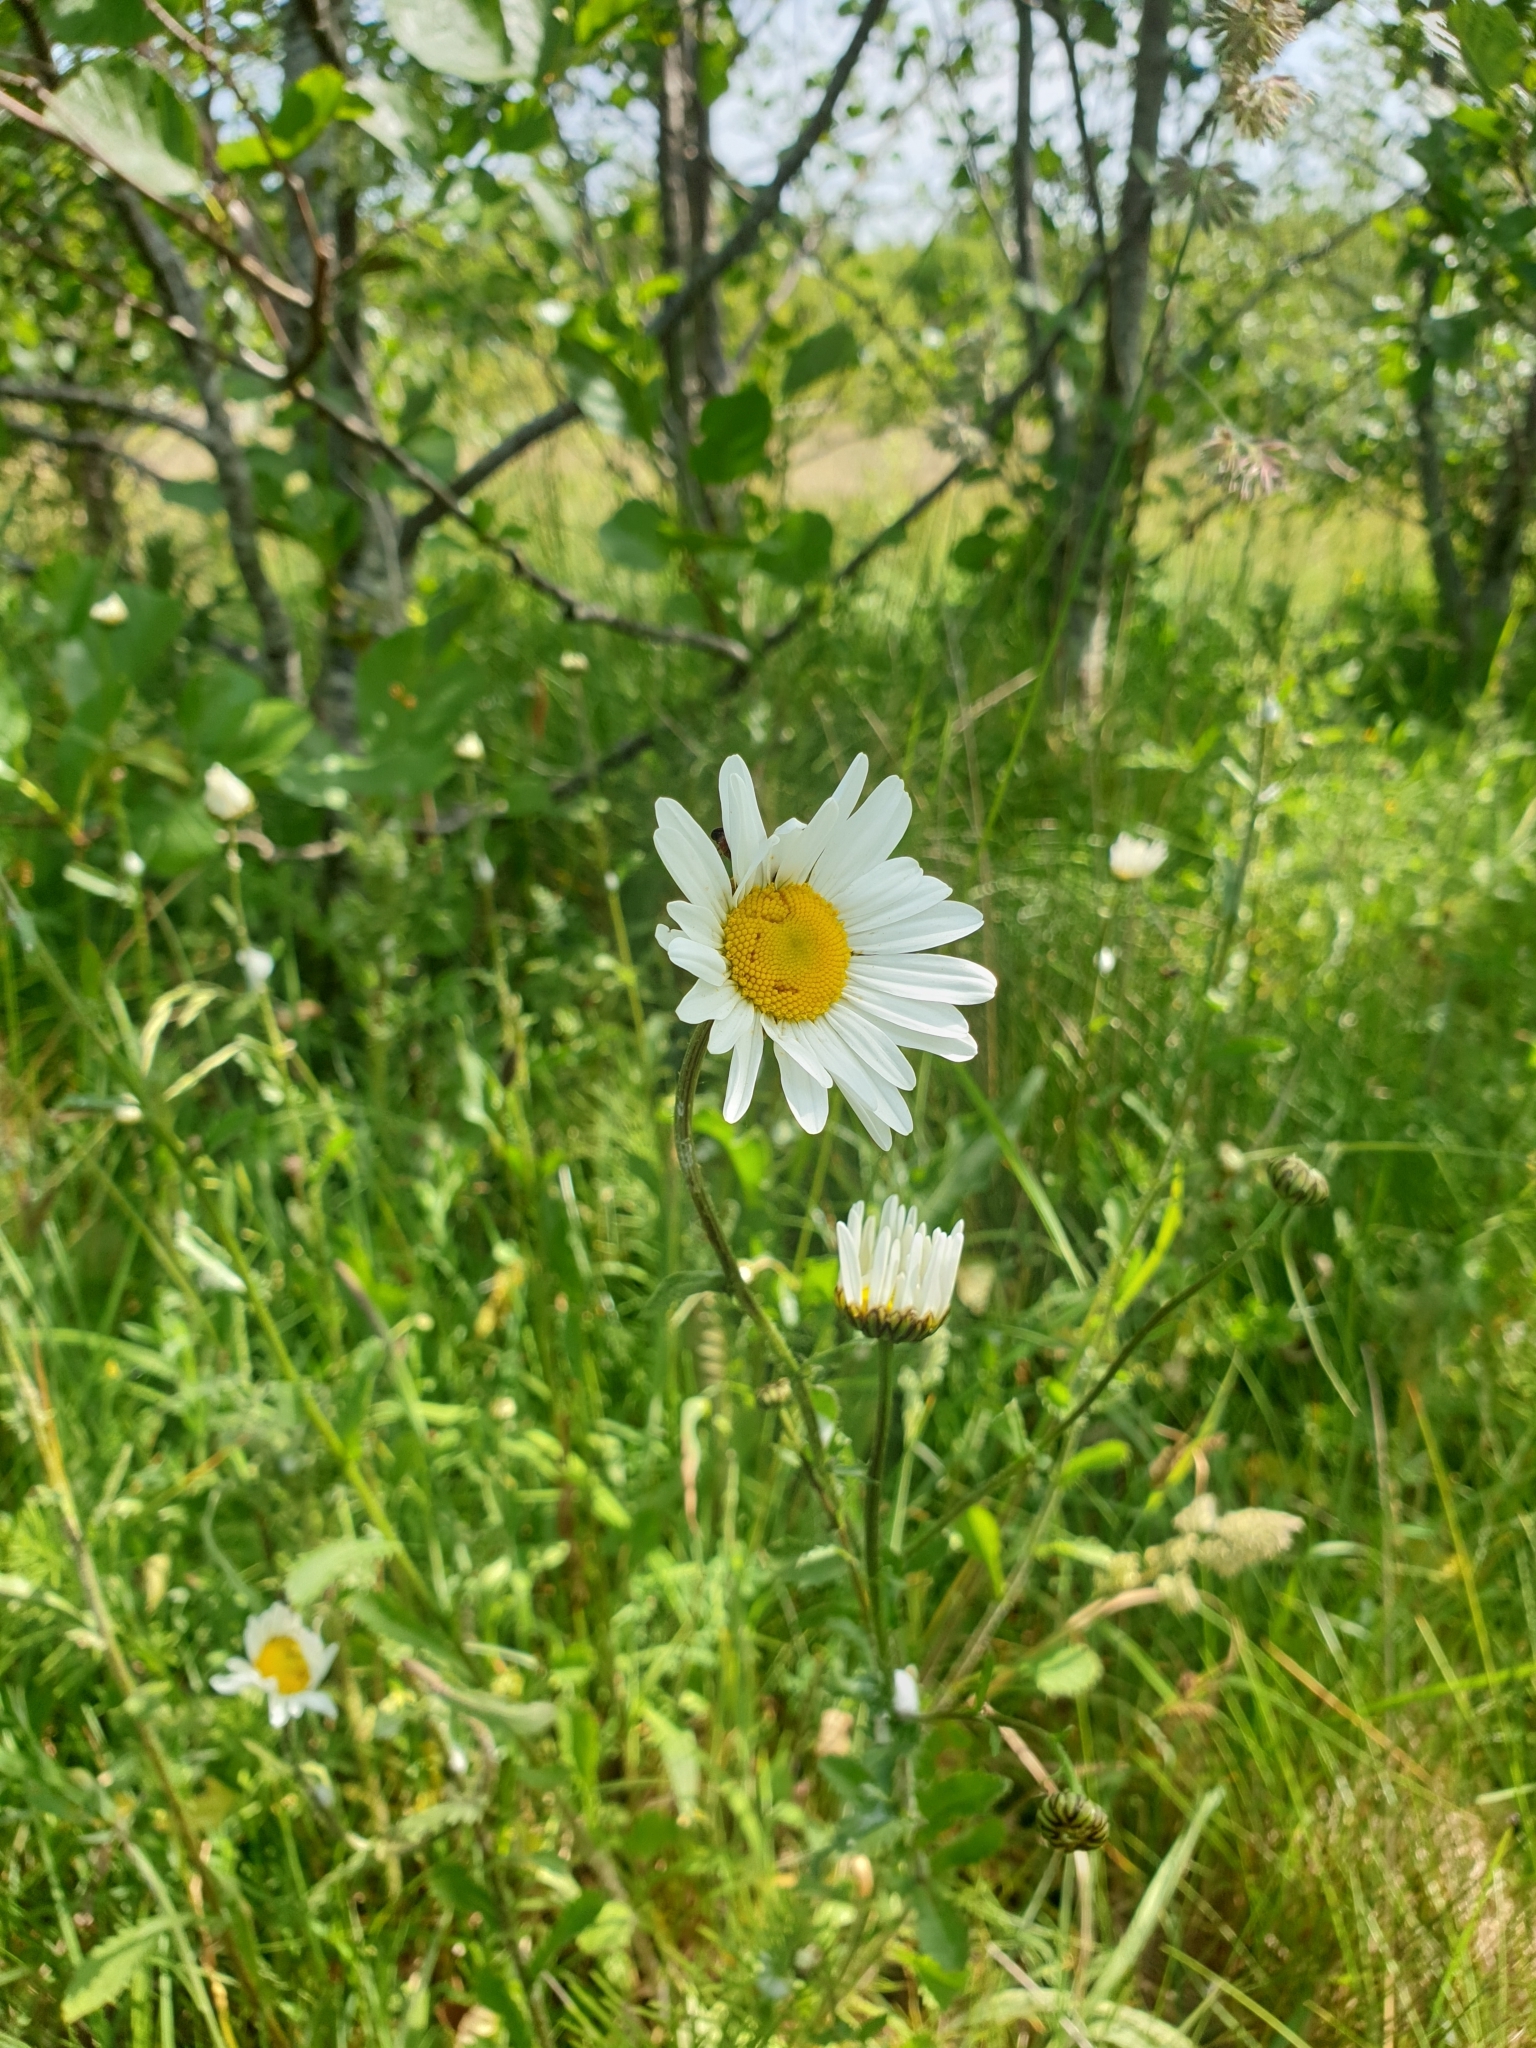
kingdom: Plantae
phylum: Tracheophyta
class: Magnoliopsida
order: Asterales
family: Asteraceae
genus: Leucanthemum
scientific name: Leucanthemum vulgare
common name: Oxeye daisy
